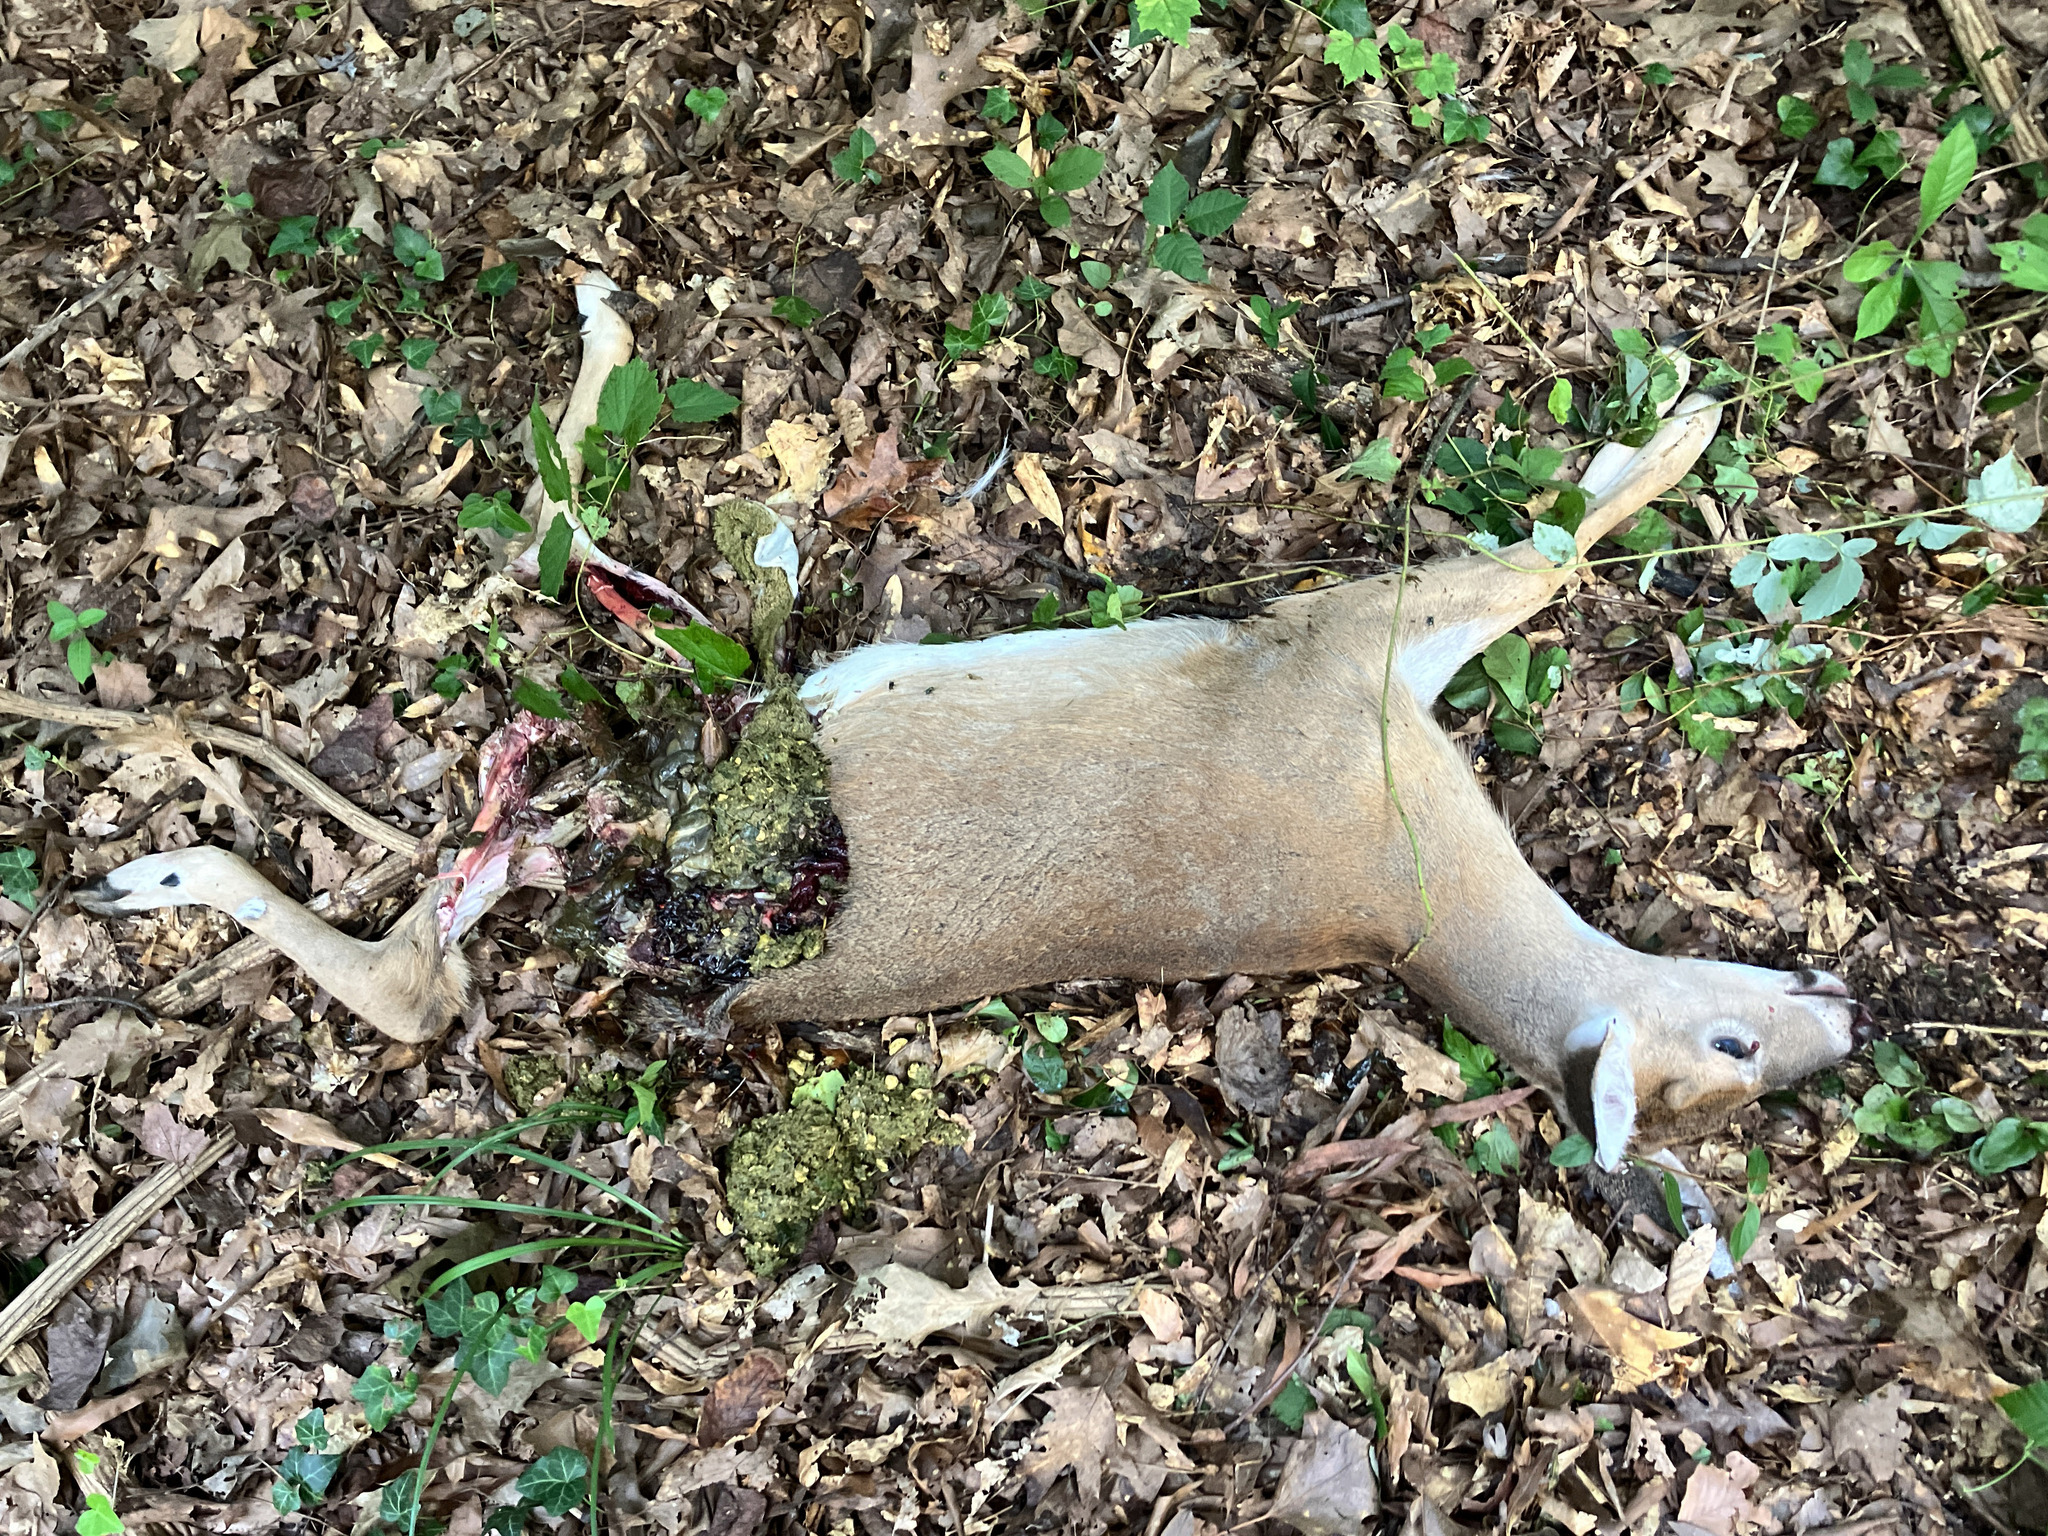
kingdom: Animalia
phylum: Chordata
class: Mammalia
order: Artiodactyla
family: Cervidae
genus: Odocoileus
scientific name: Odocoileus virginianus
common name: White-tailed deer
